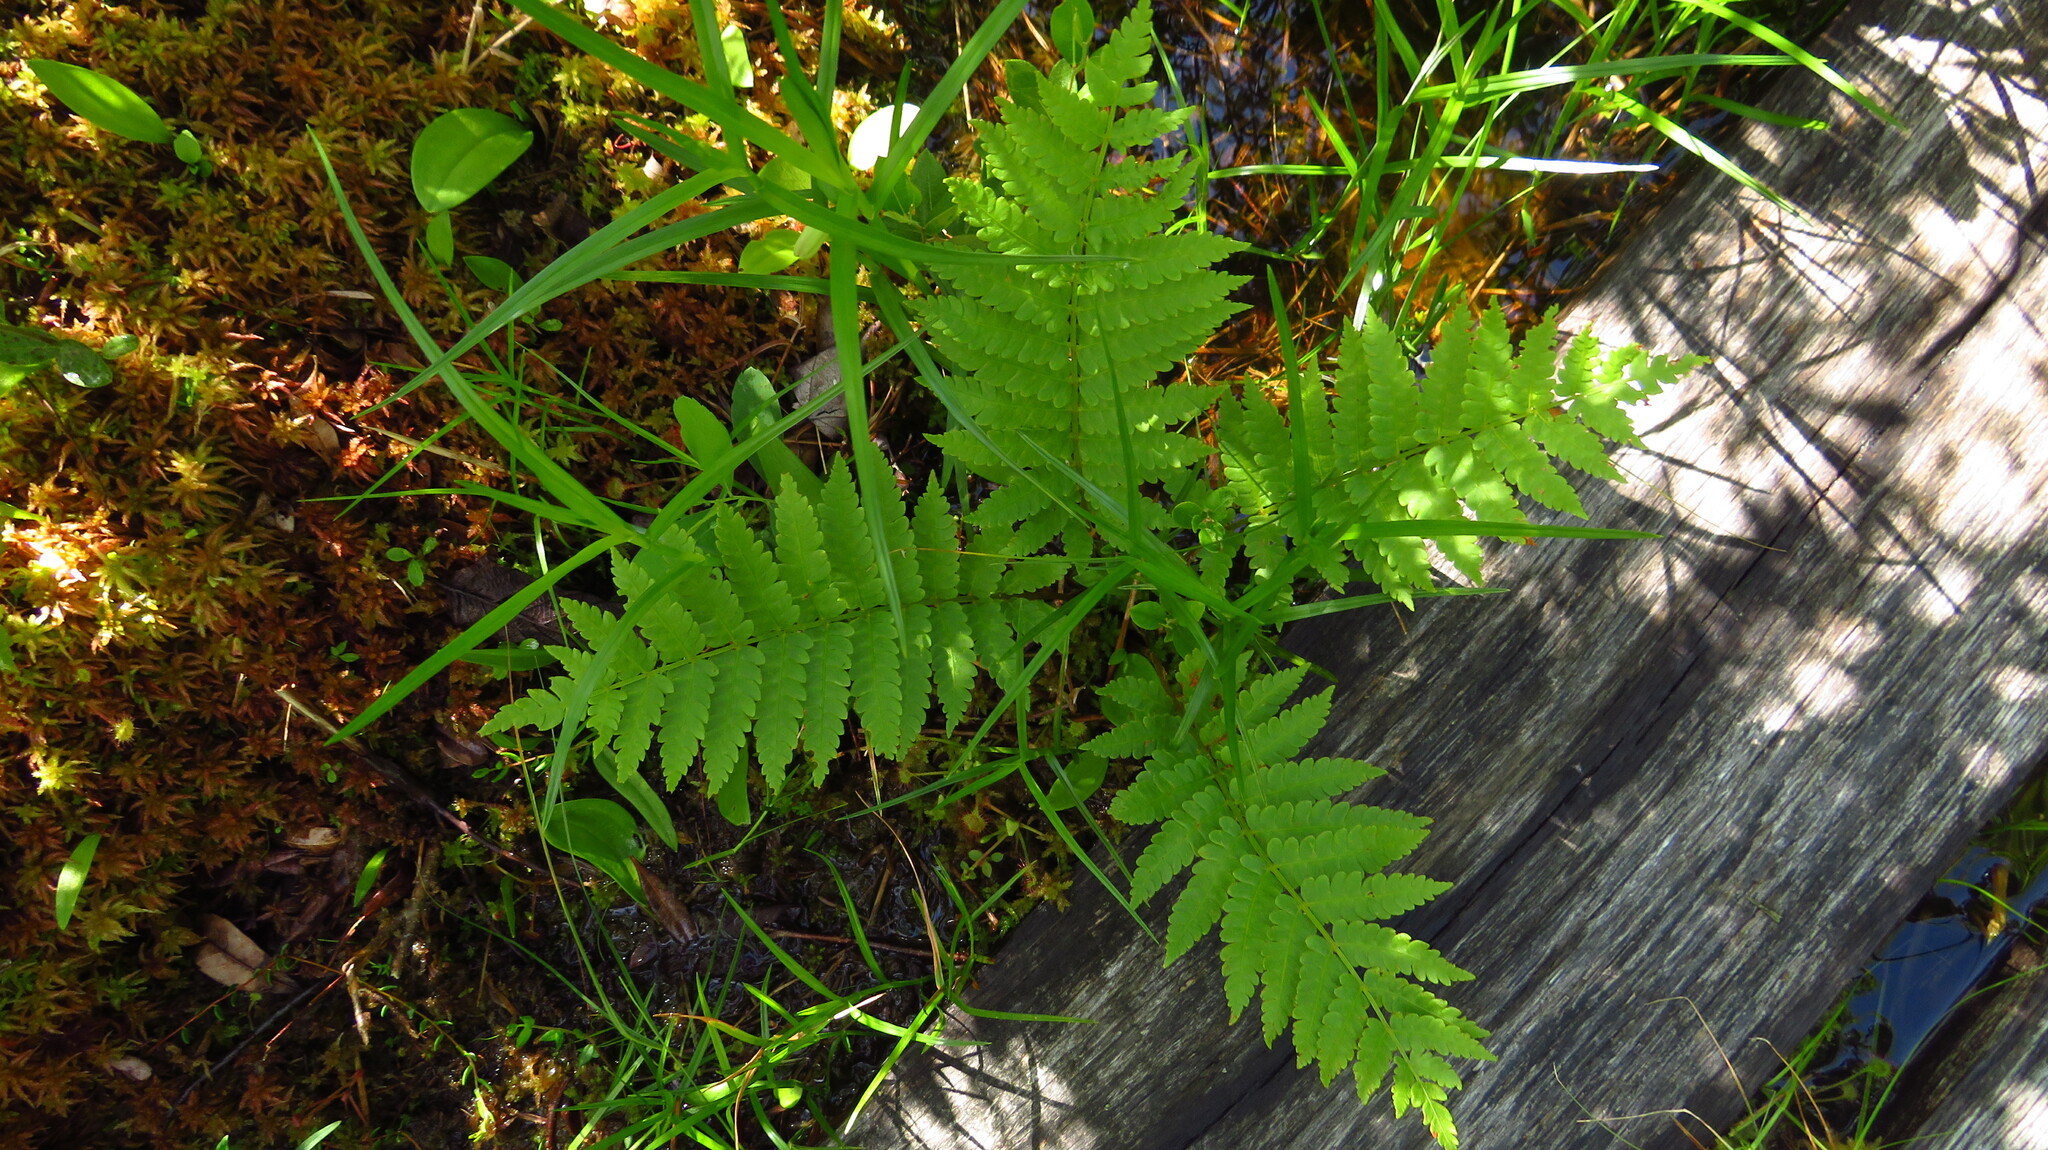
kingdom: Plantae
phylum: Tracheophyta
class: Polypodiopsida
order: Osmundales
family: Osmundaceae
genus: Osmundastrum
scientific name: Osmundastrum cinnamomeum
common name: Cinnamon fern
